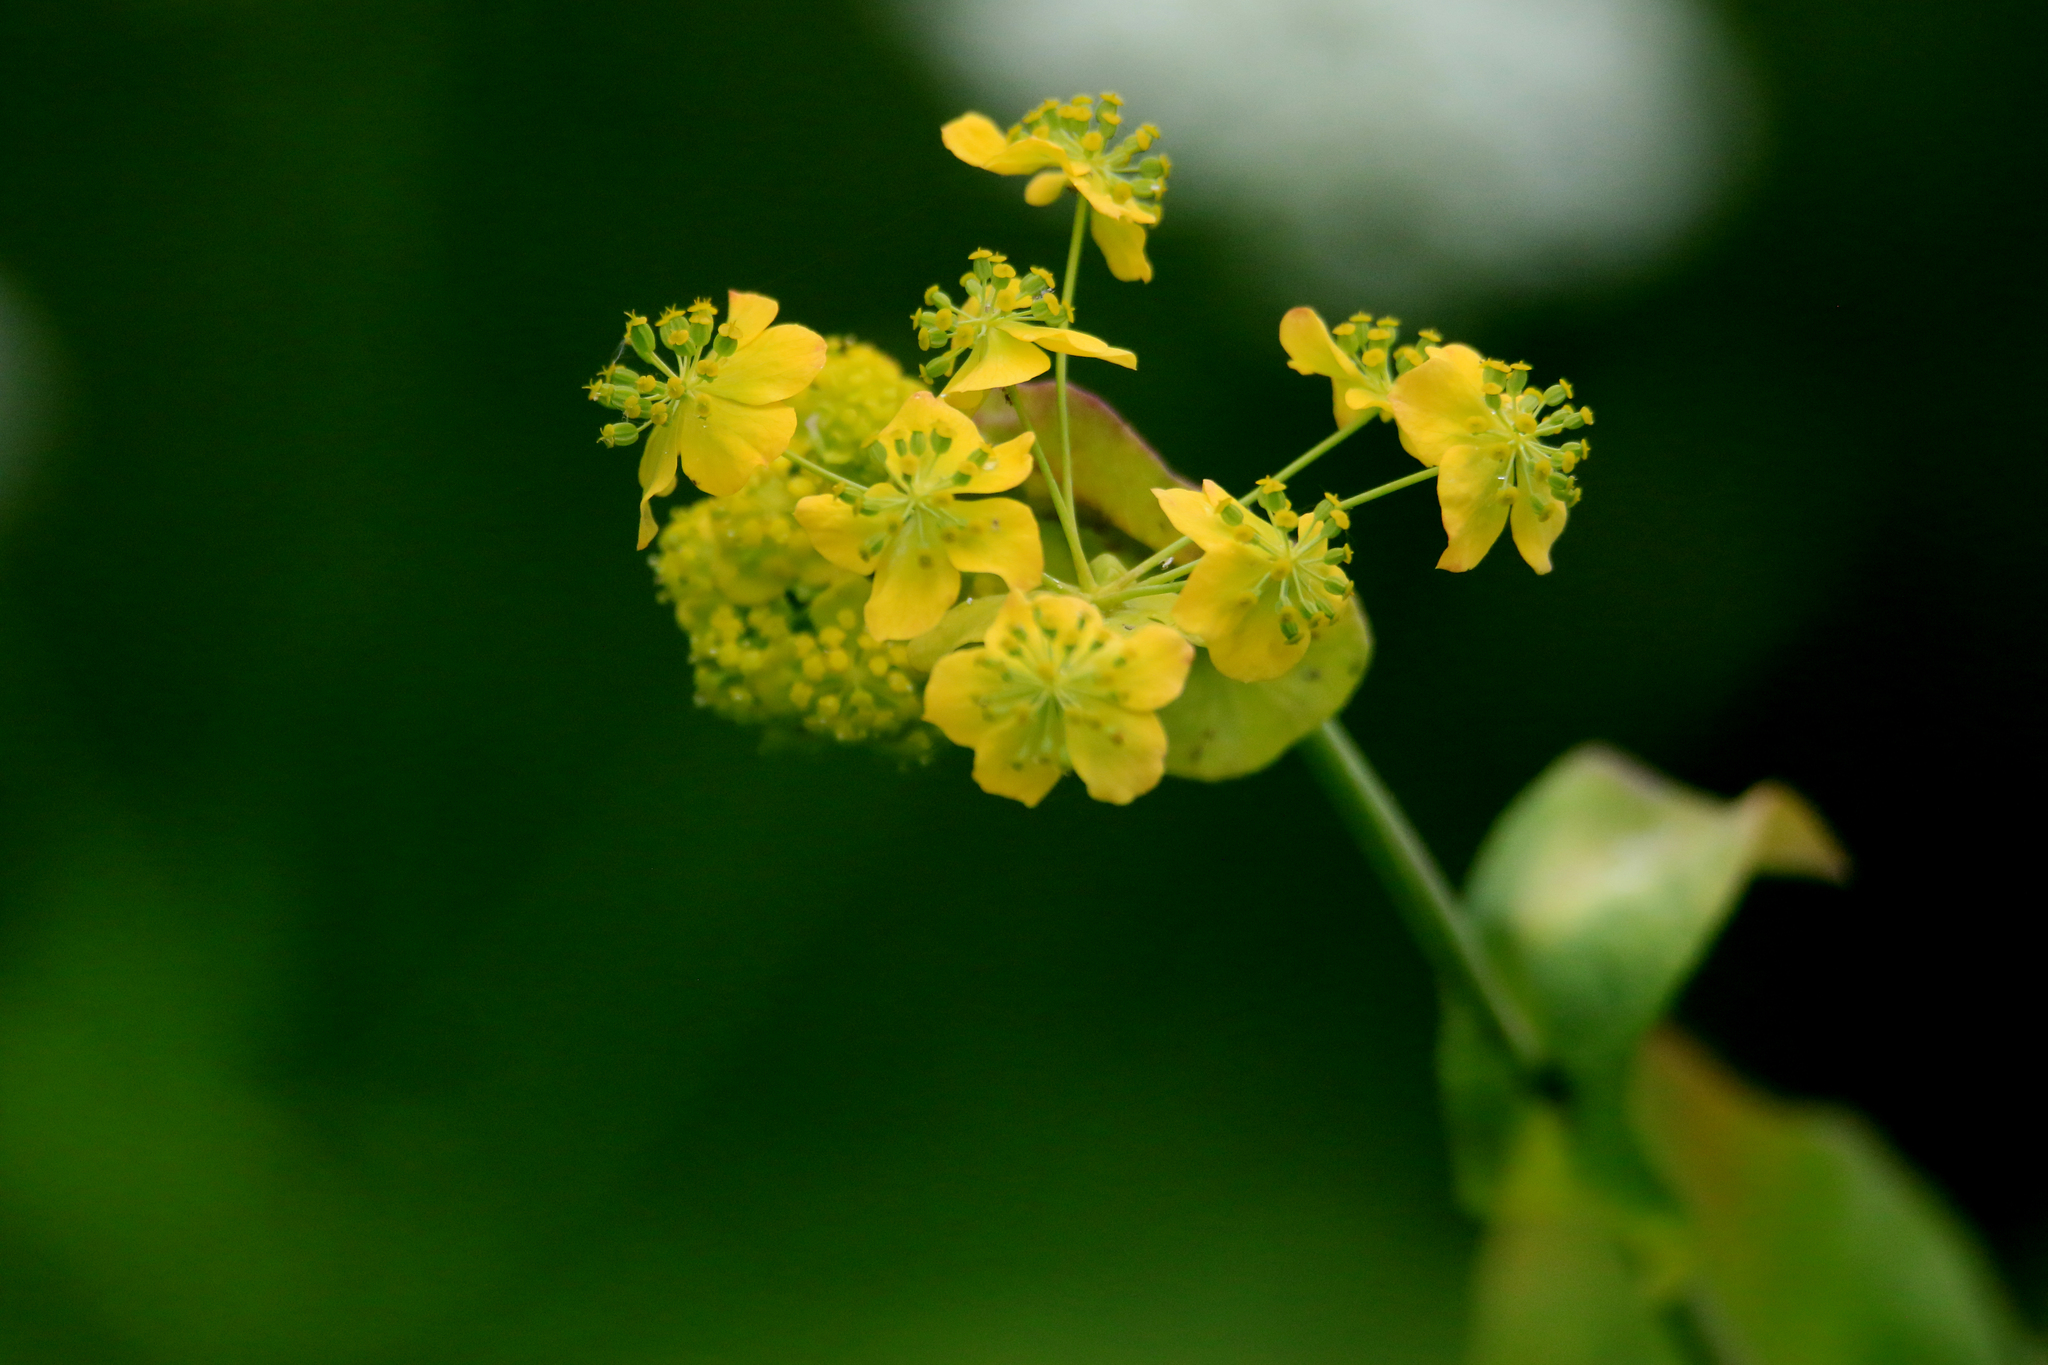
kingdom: Plantae
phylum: Tracheophyta
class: Magnoliopsida
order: Apiales
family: Apiaceae
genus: Bupleurum
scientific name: Bupleurum aureum
